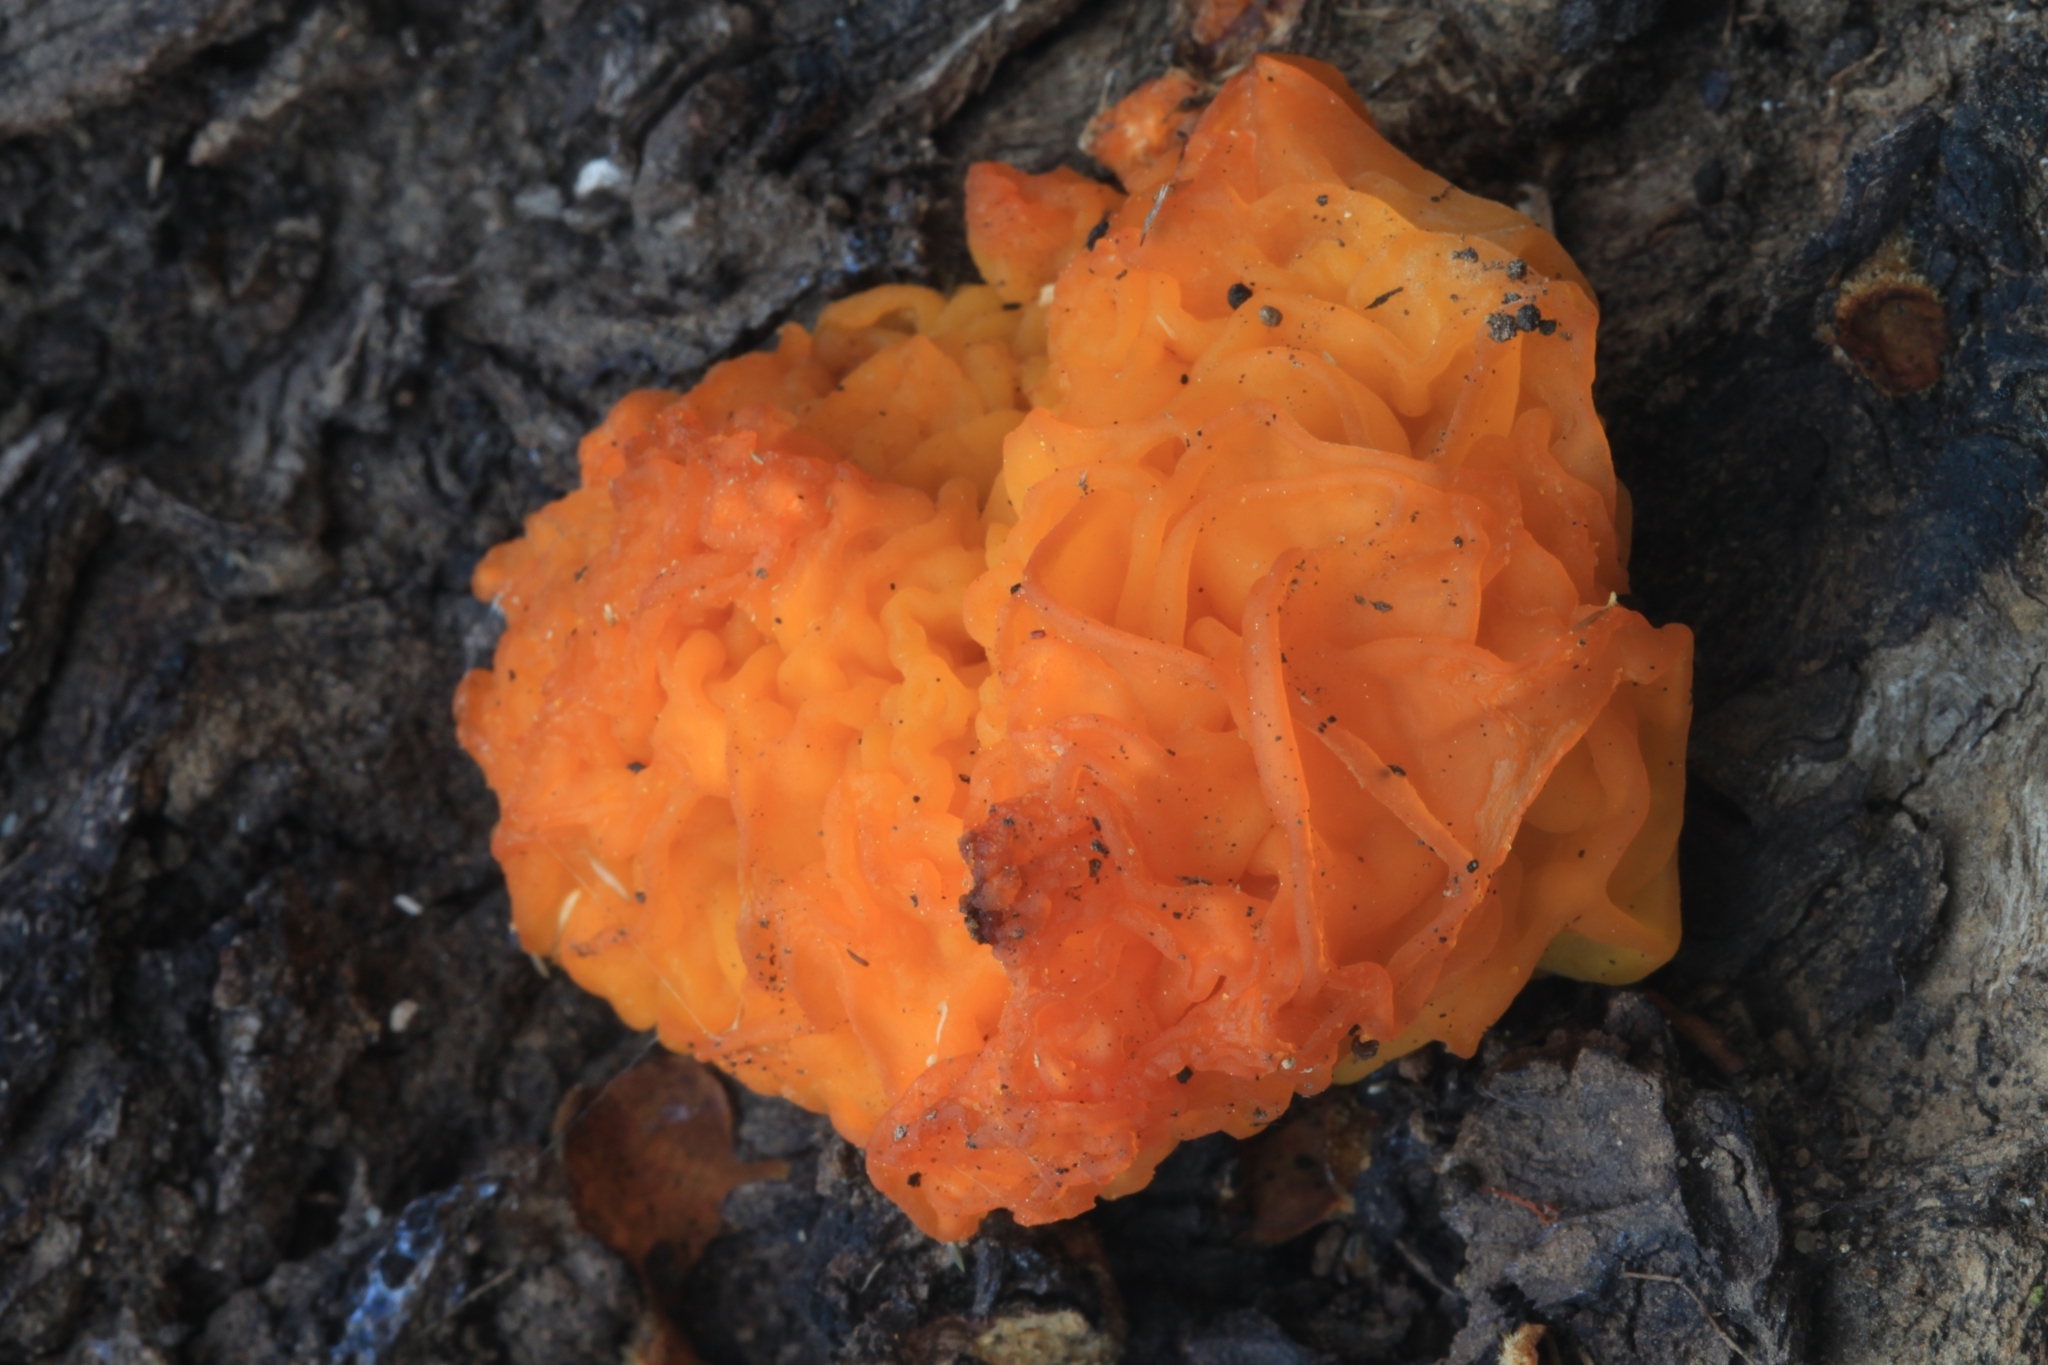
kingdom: Fungi
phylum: Basidiomycota
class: Tremellomycetes
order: Tremellales
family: Tremellaceae
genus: Tremella
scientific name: Tremella mesenterica
